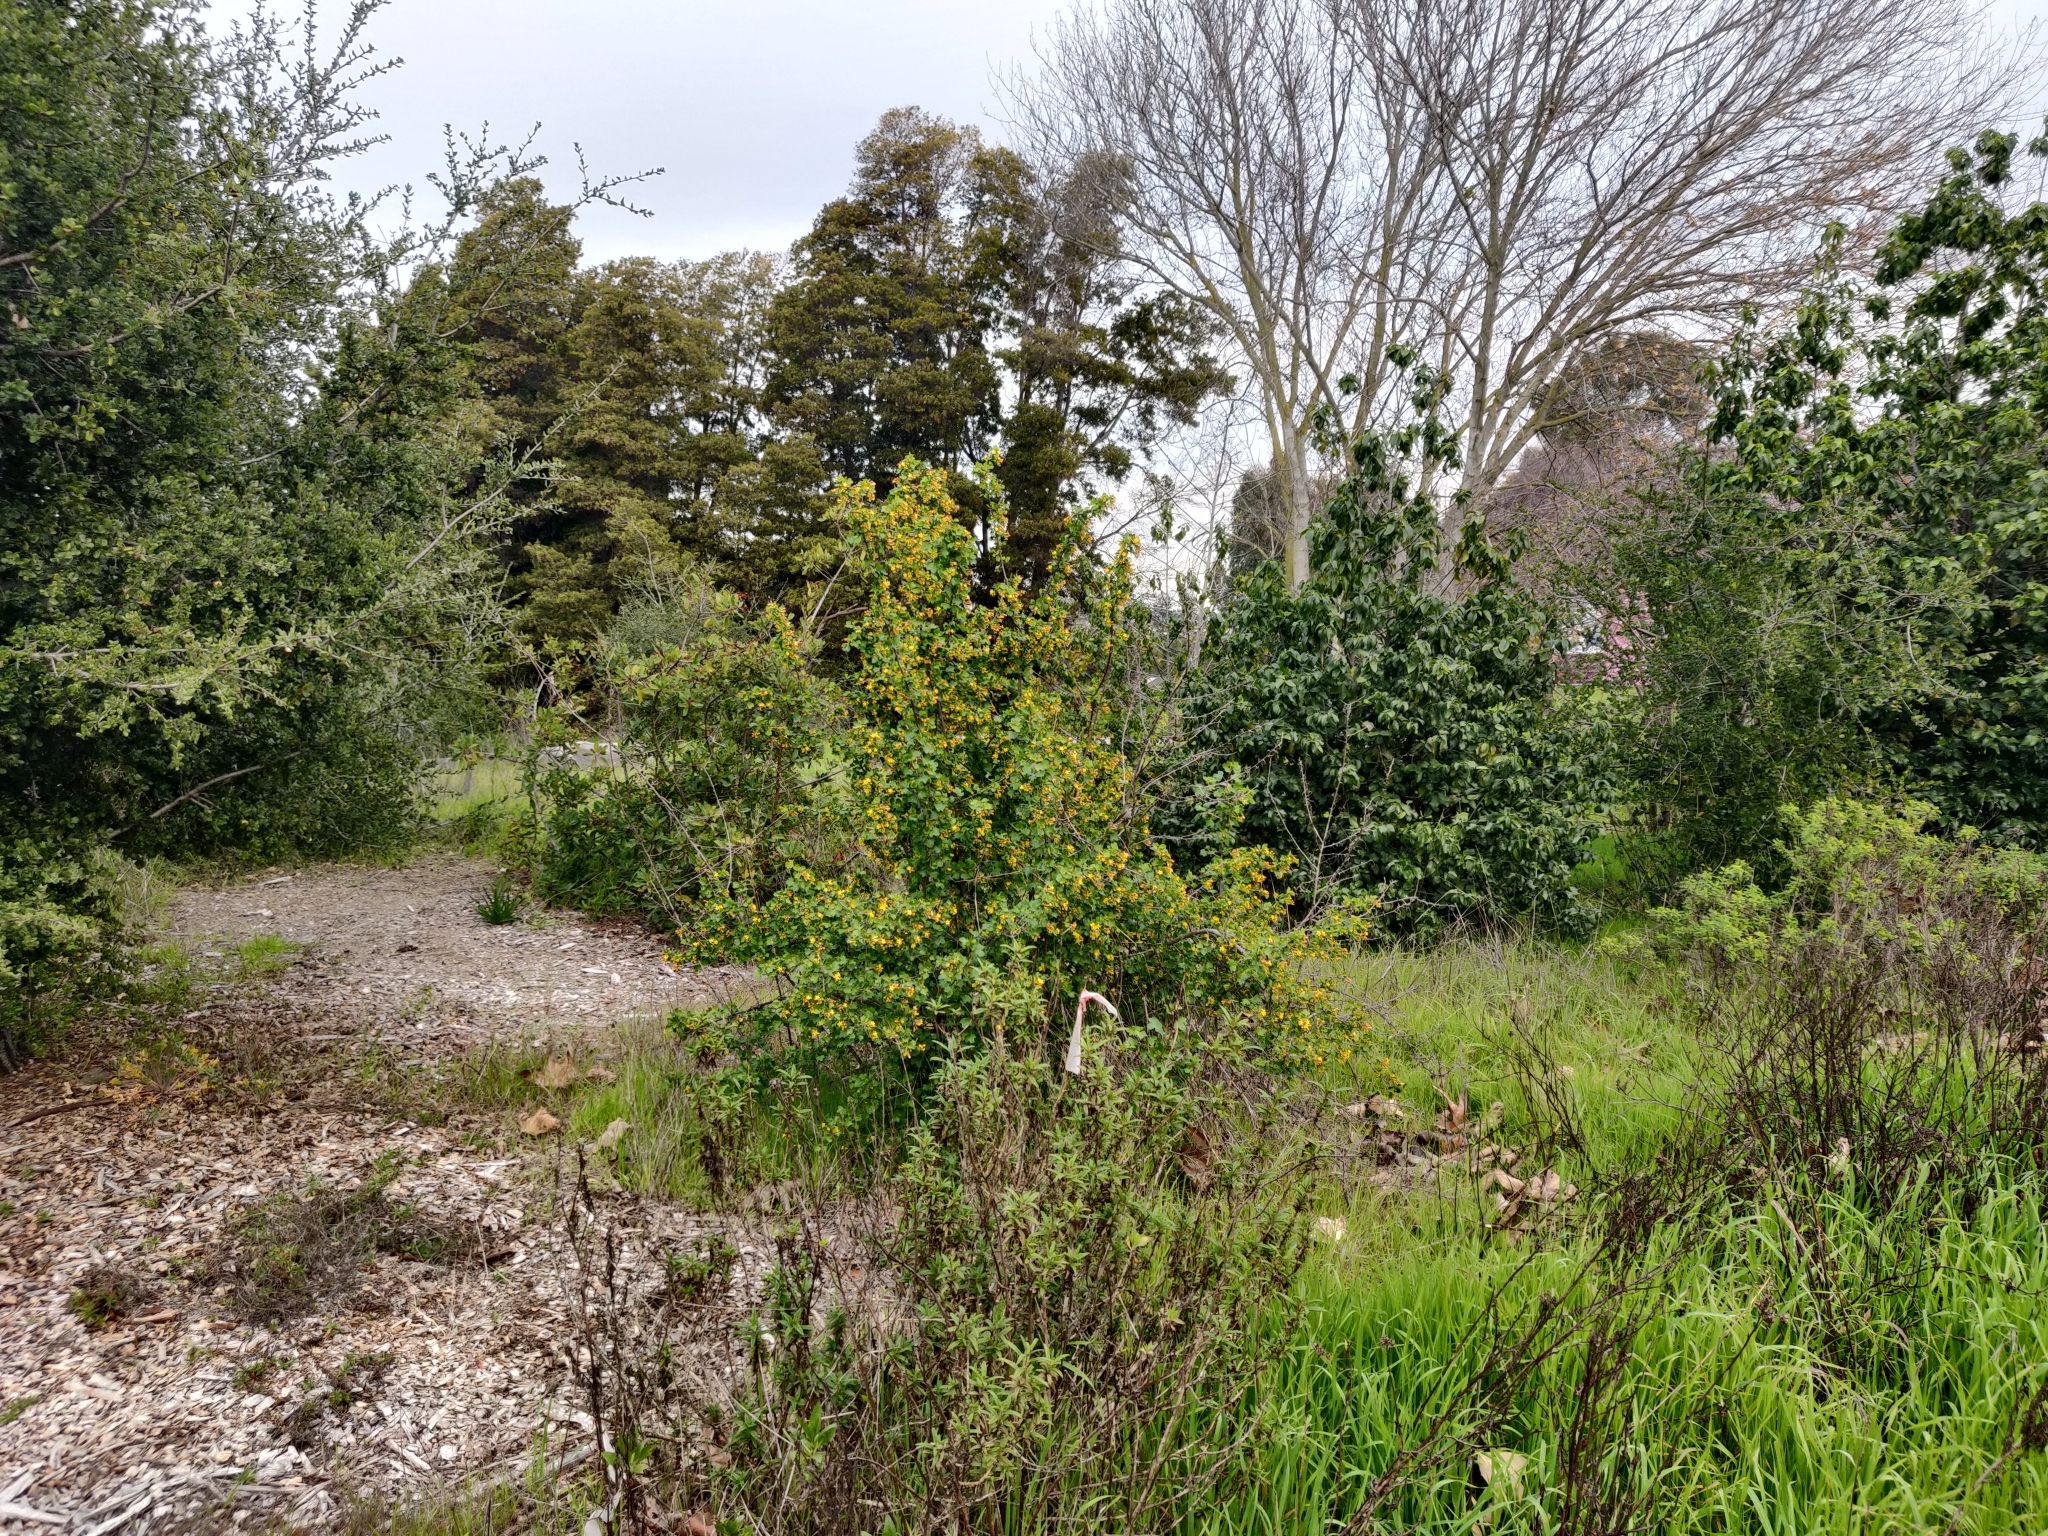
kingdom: Animalia
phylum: Chordata
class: Aves
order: Apodiformes
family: Trochilidae
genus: Calypte
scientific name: Calypte anna
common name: Anna's hummingbird
